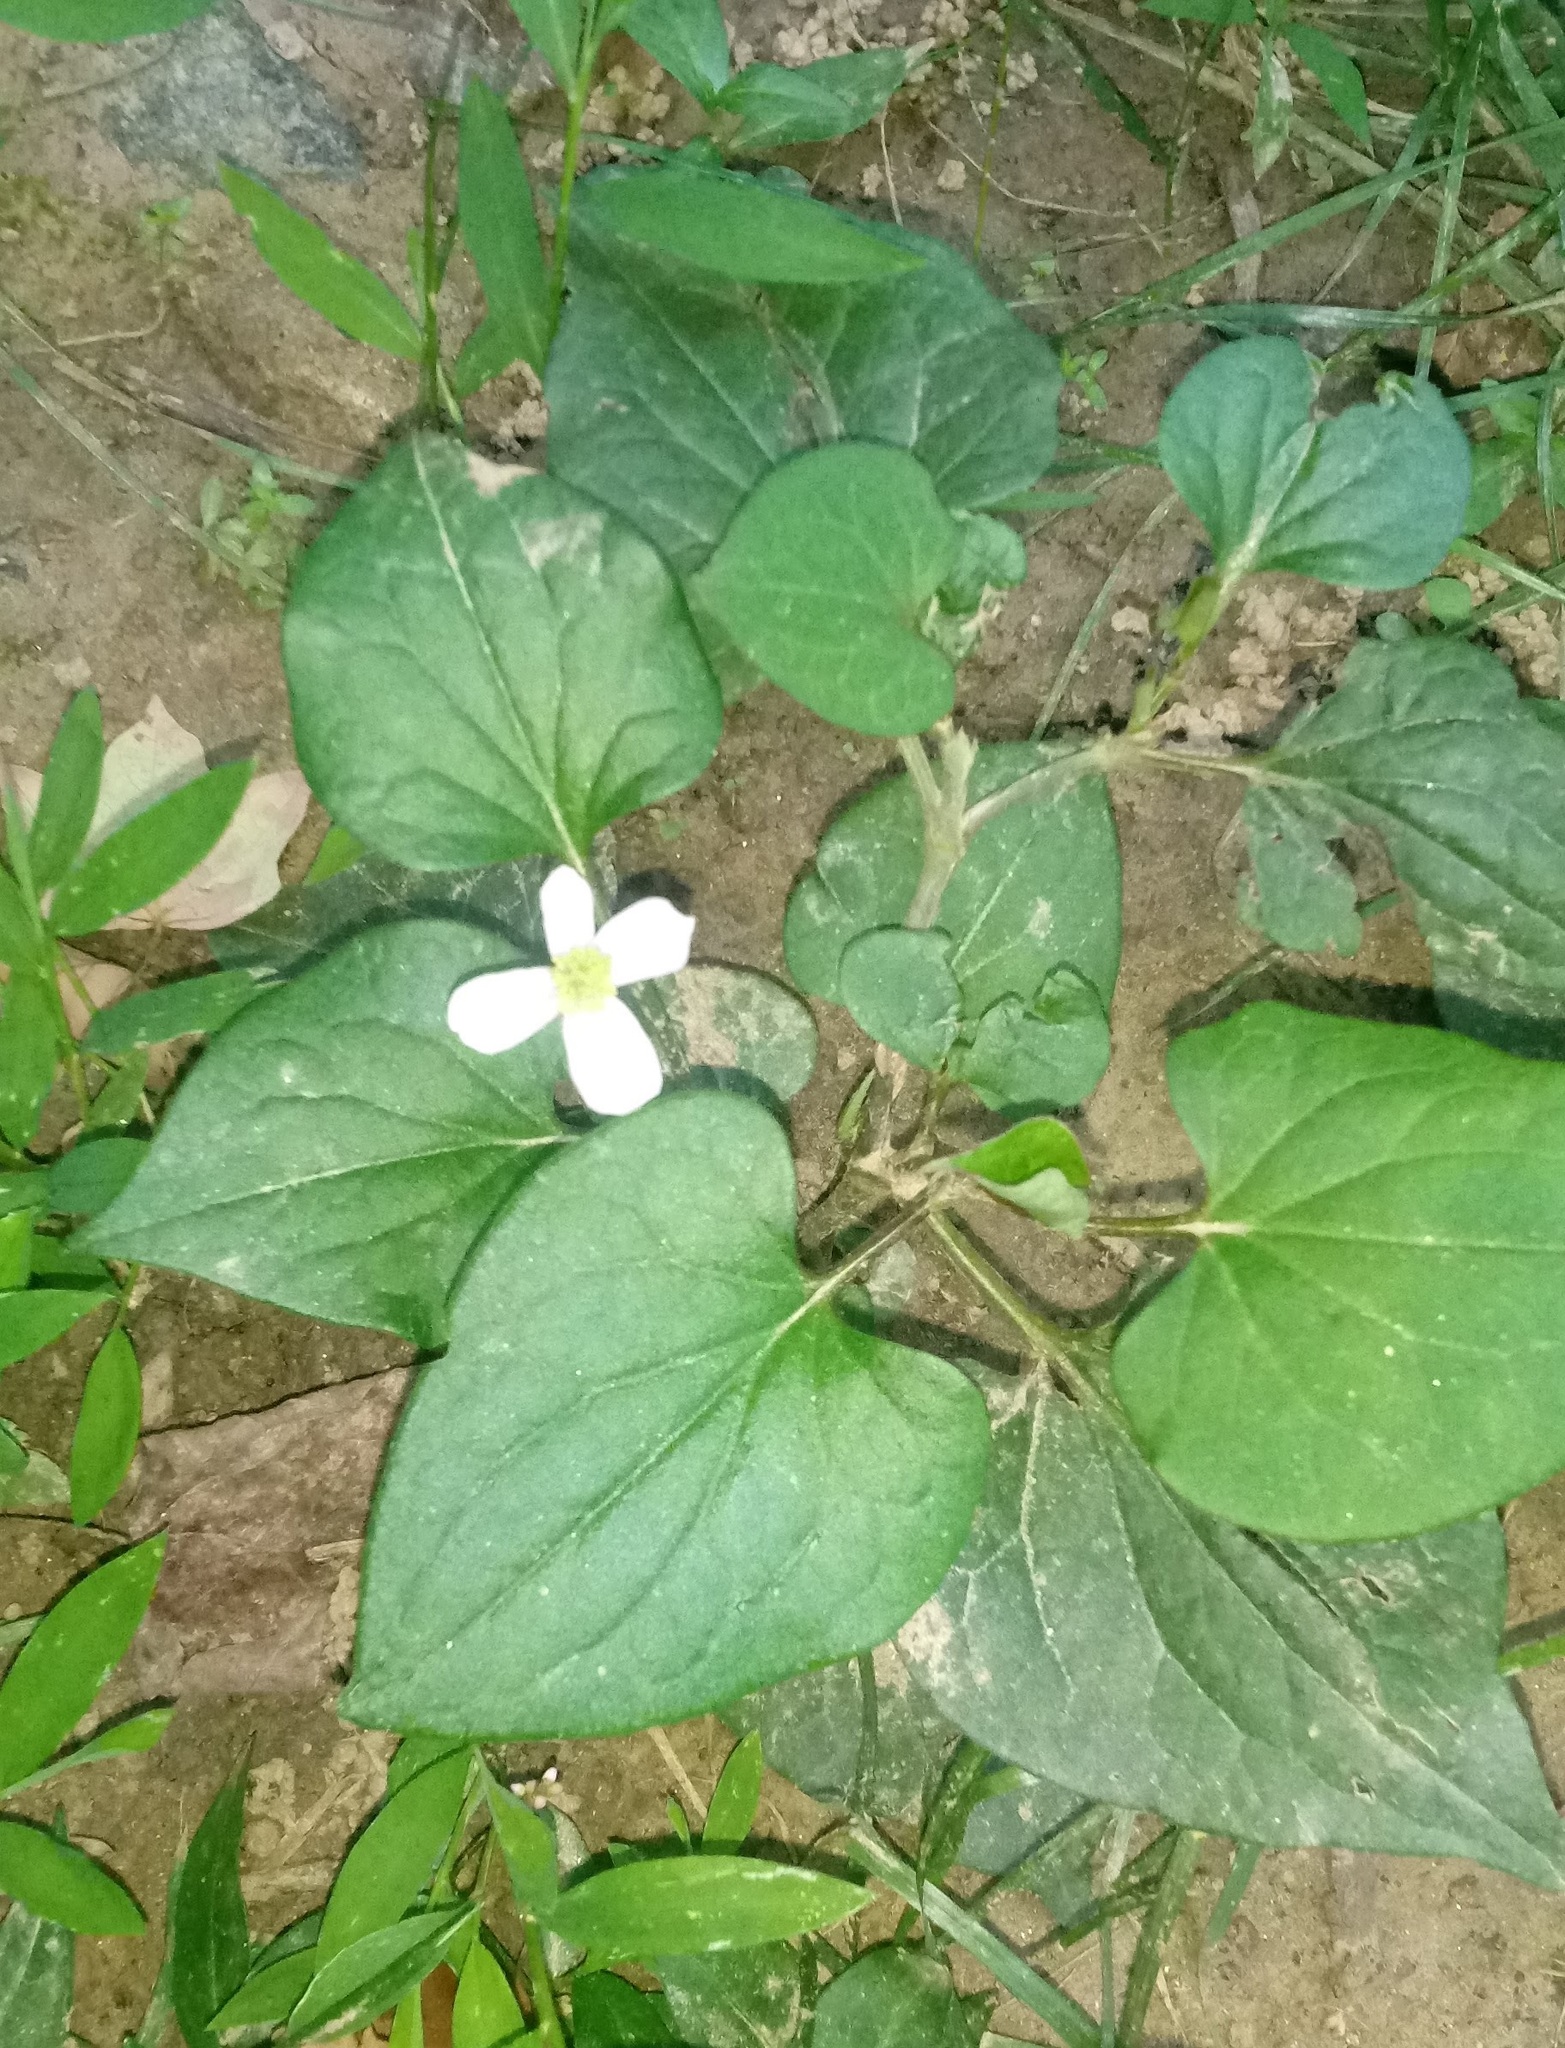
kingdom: Plantae
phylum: Tracheophyta
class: Magnoliopsida
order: Piperales
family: Saururaceae
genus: Houttuynia
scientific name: Houttuynia cordata
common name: Chameleon
